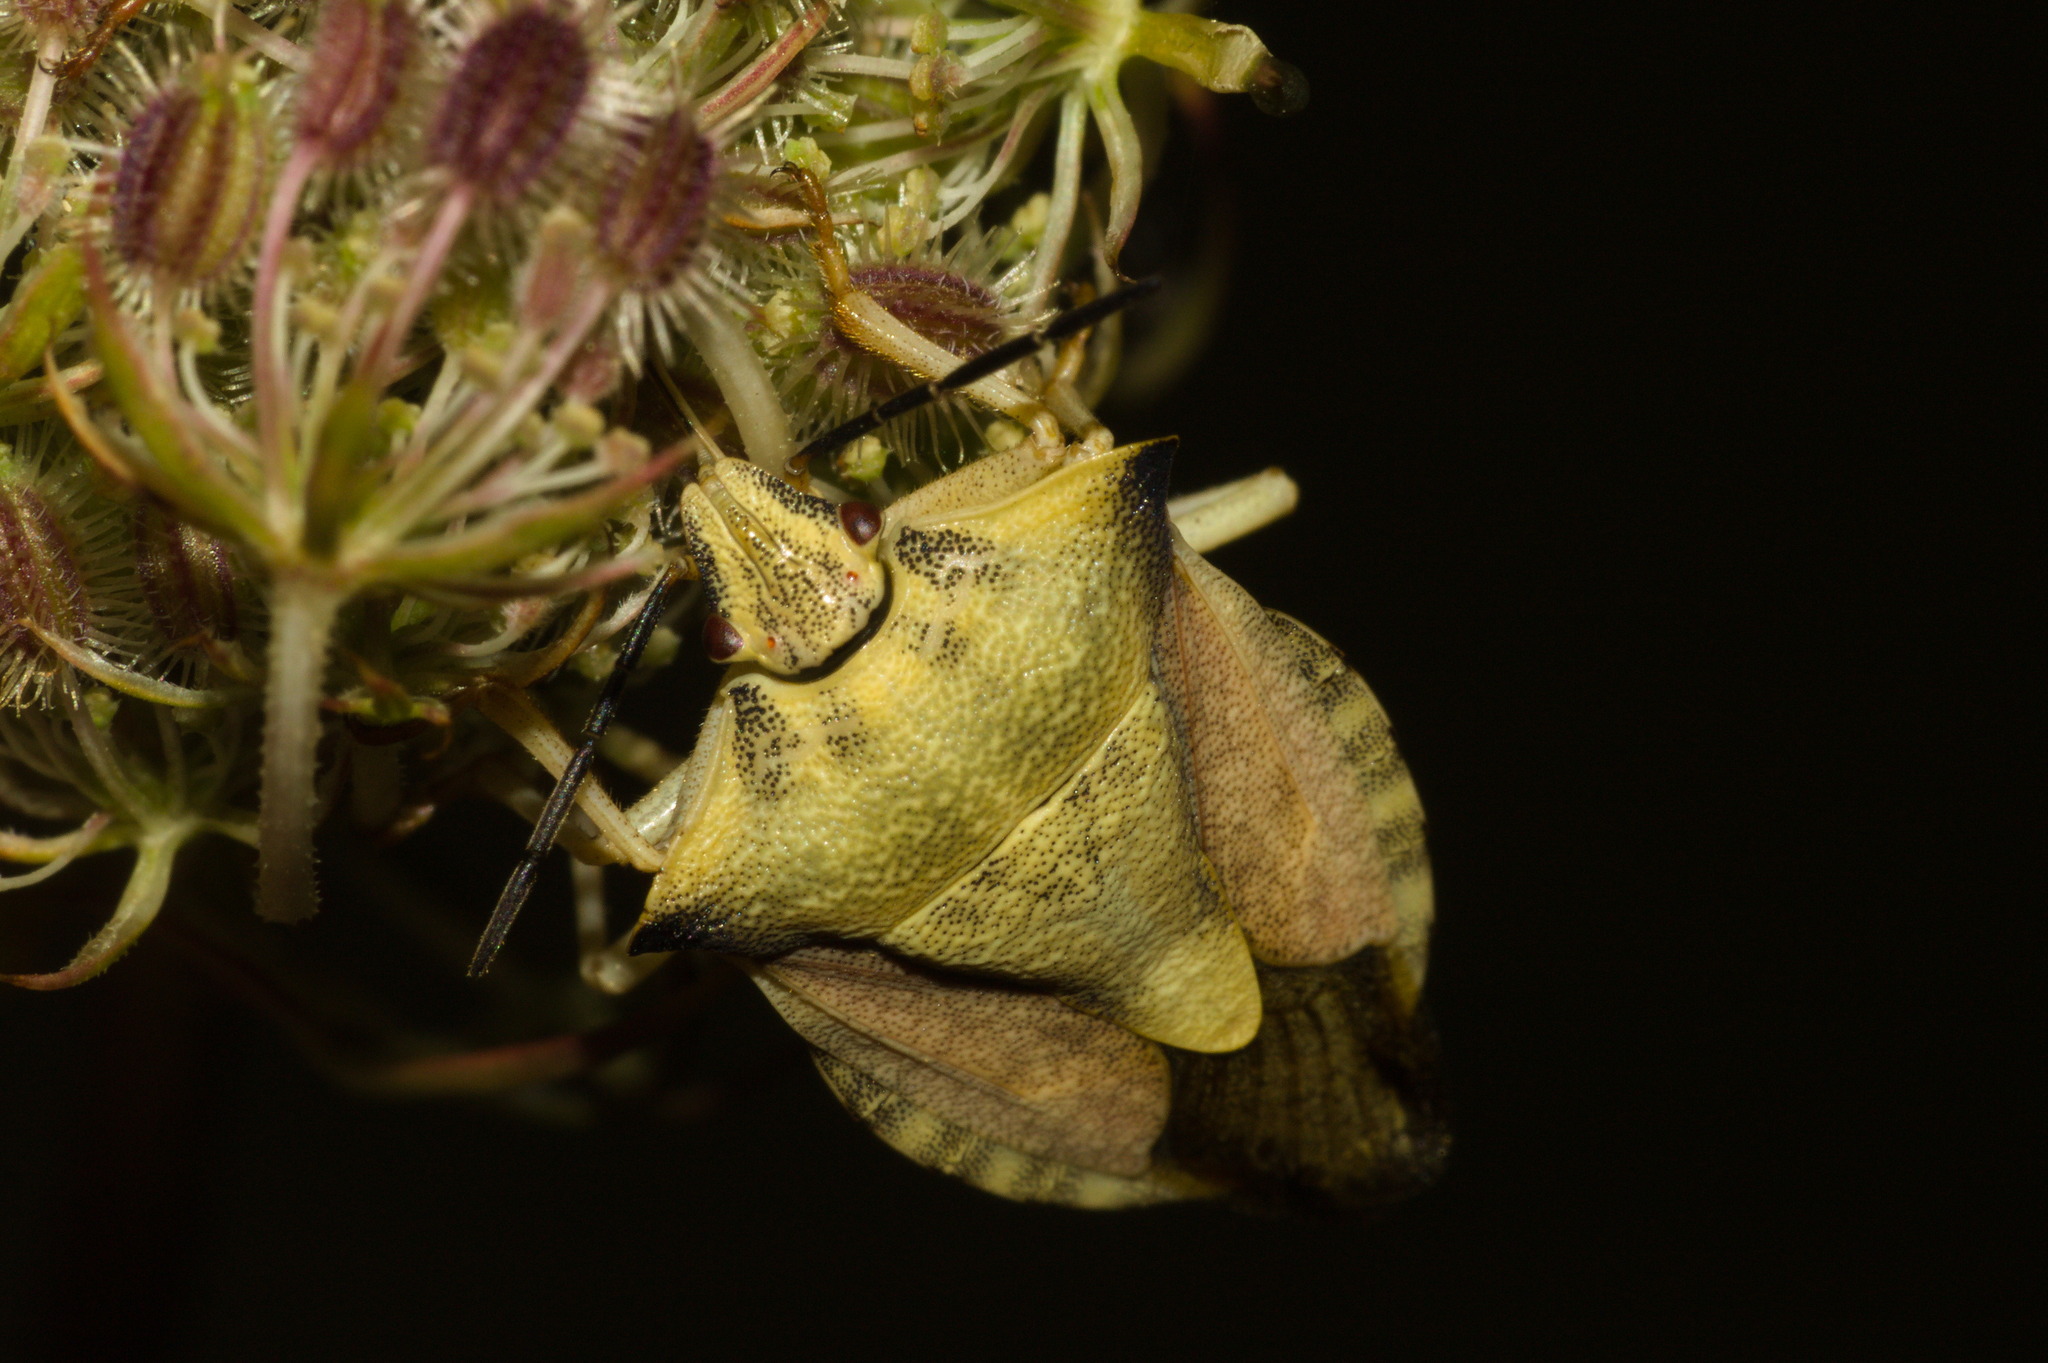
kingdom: Animalia
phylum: Arthropoda
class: Insecta
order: Hemiptera
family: Pentatomidae
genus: Carpocoris
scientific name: Carpocoris fuscispinus
